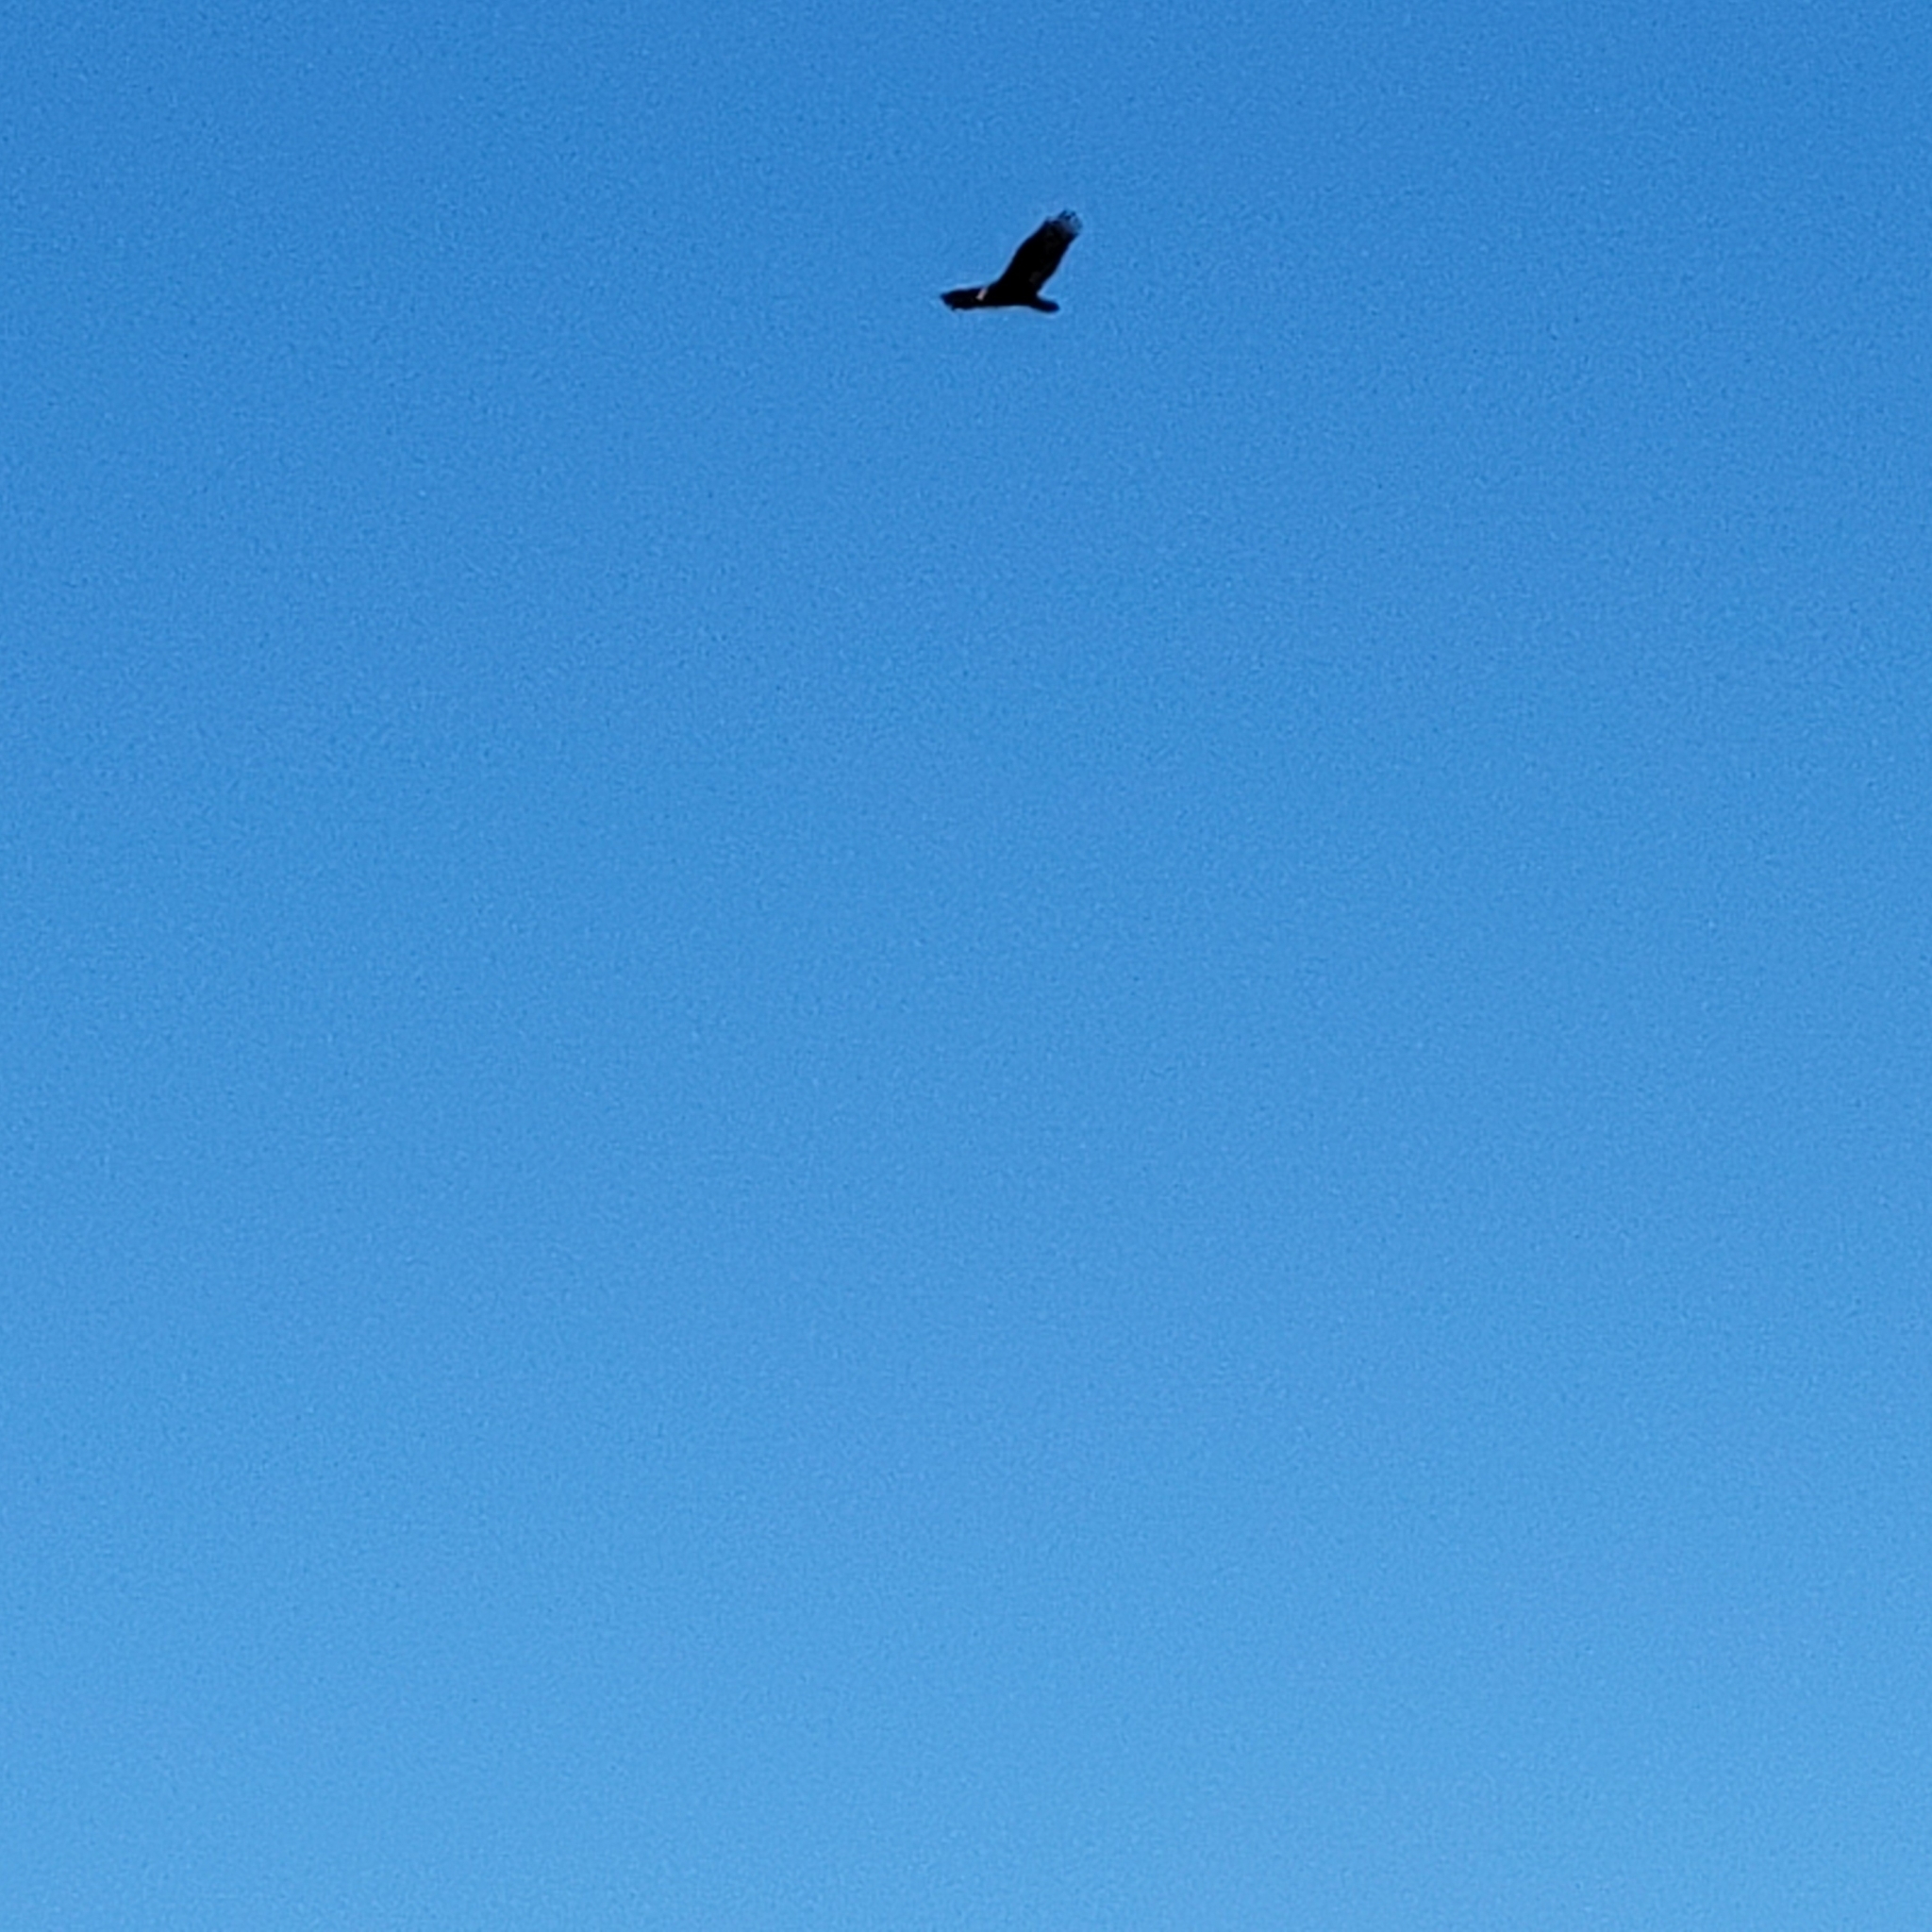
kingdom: Animalia
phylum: Chordata
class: Aves
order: Accipitriformes
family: Cathartidae
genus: Cathartes
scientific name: Cathartes aura
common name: Turkey vulture
